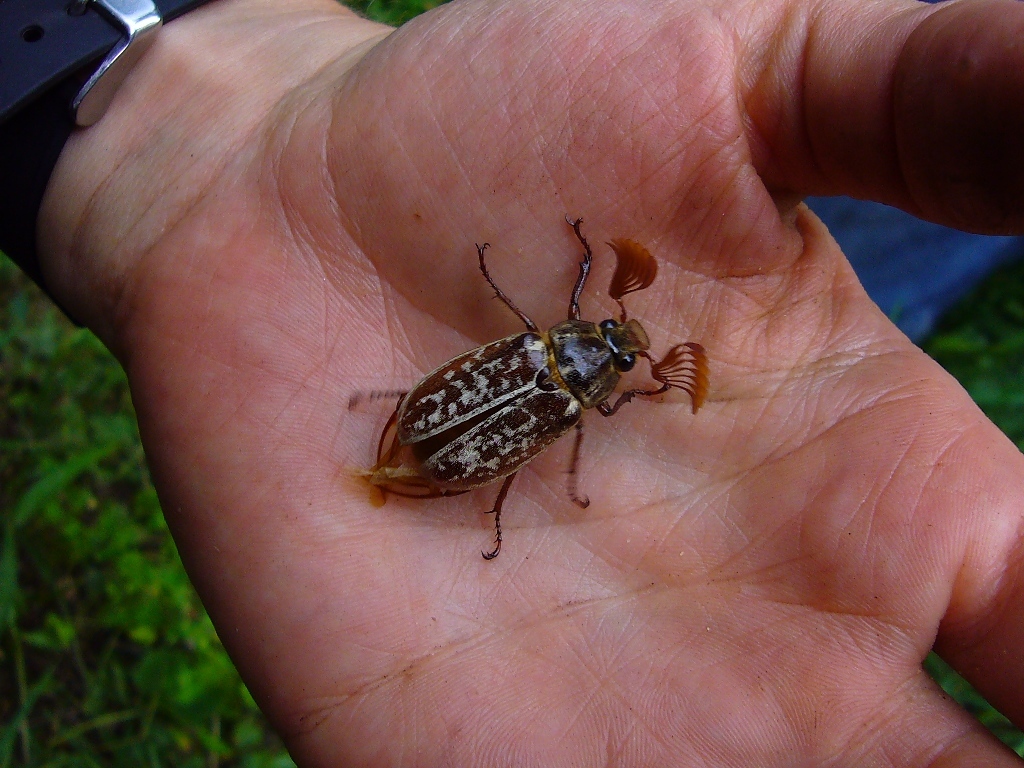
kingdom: Animalia
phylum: Arthropoda
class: Insecta
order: Coleoptera
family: Scarabaeidae
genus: Polyphylla
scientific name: Polyphylla comes
